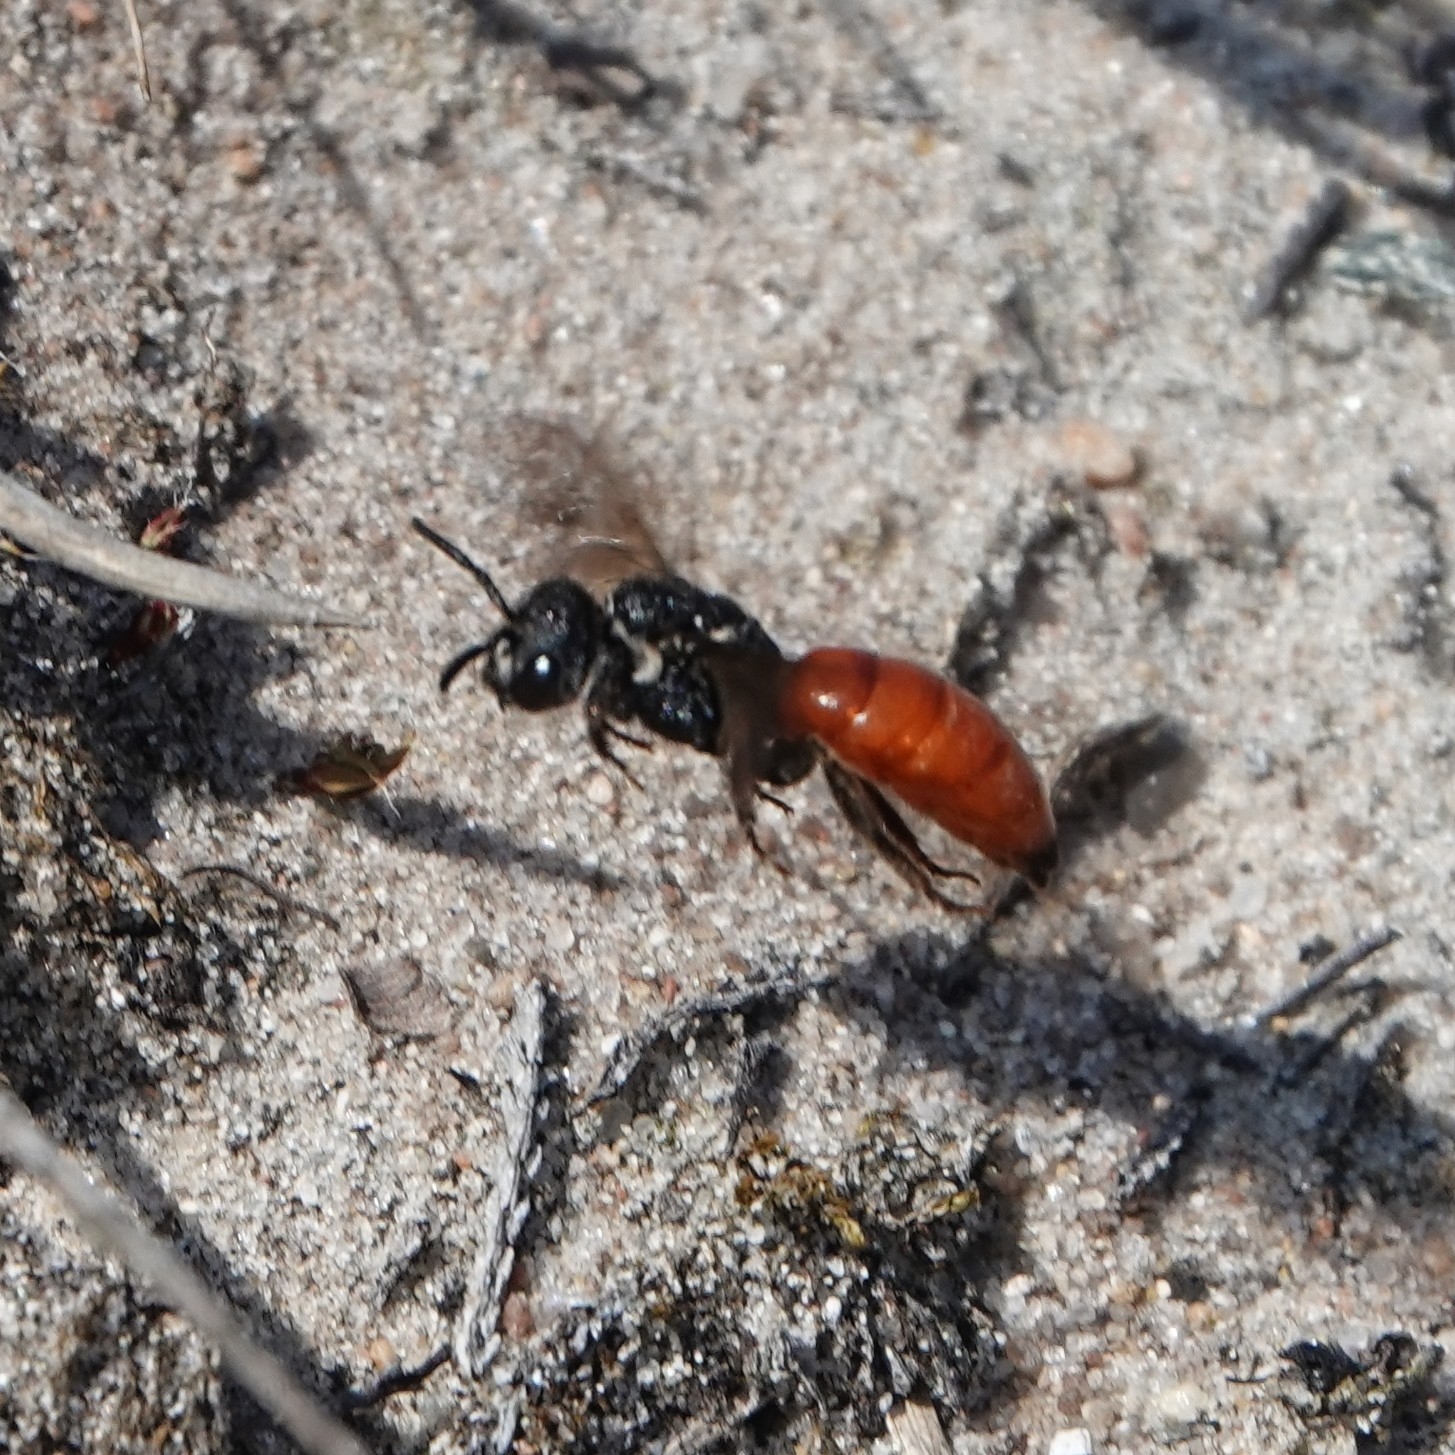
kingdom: Animalia
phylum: Arthropoda
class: Insecta
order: Hymenoptera
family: Halictidae
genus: Sphecodes
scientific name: Sphecodes albilabris
